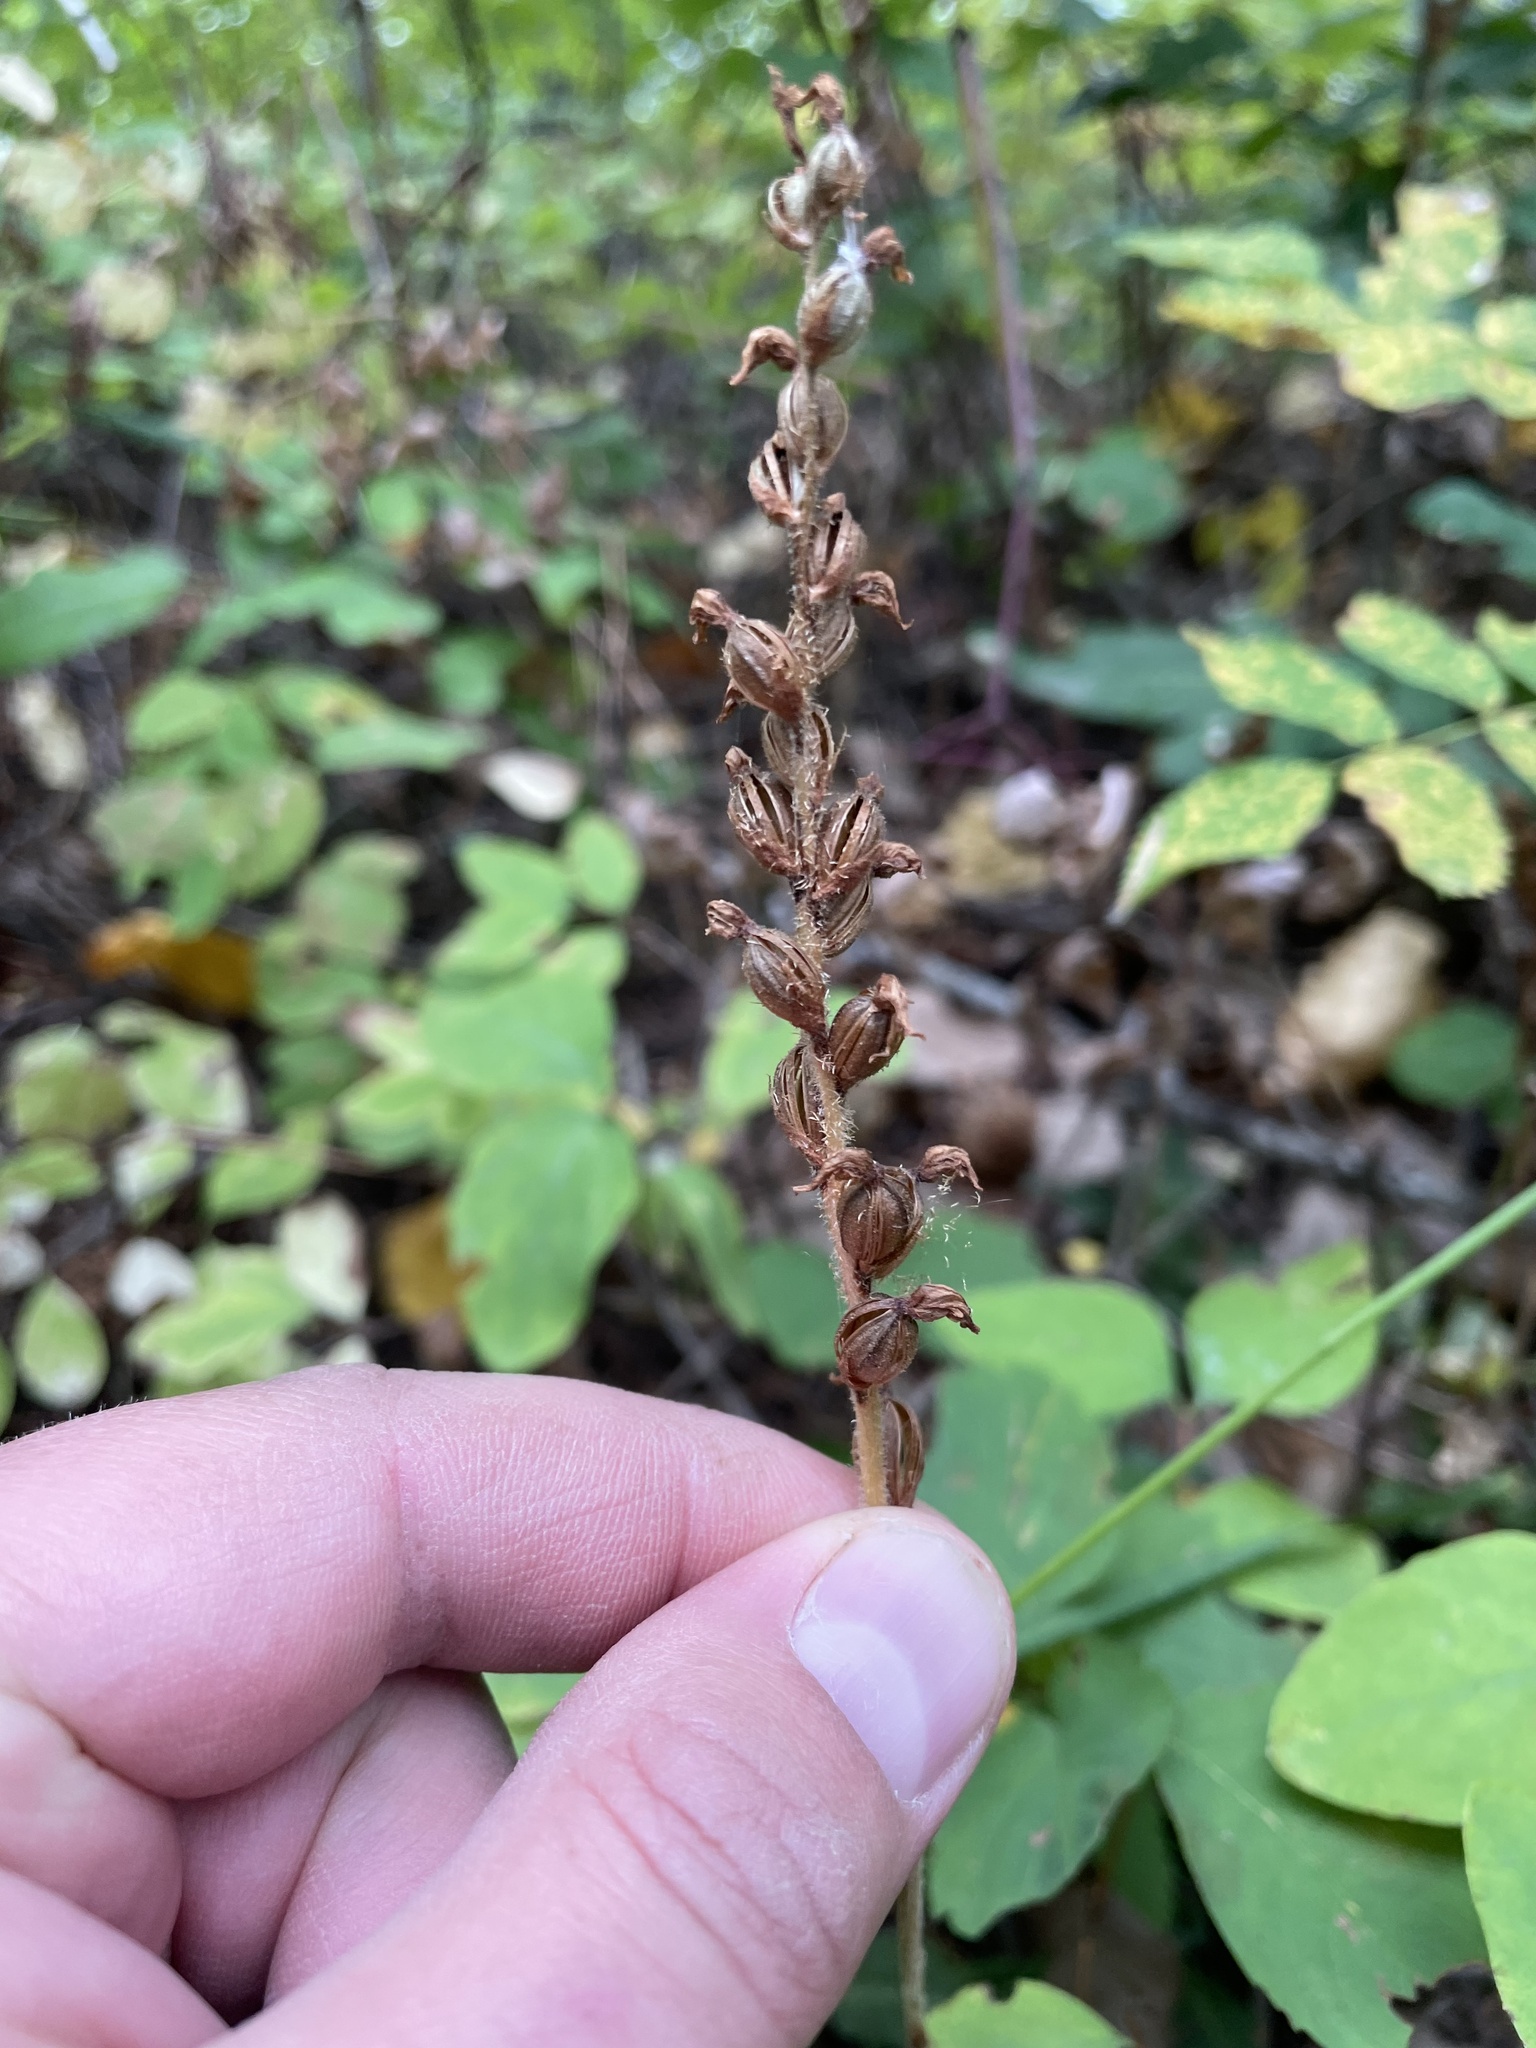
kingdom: Plantae
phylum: Tracheophyta
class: Liliopsida
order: Asparagales
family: Orchidaceae
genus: Goodyera
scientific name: Goodyera oblongifolia
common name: Giant rattlesnake-plantain
